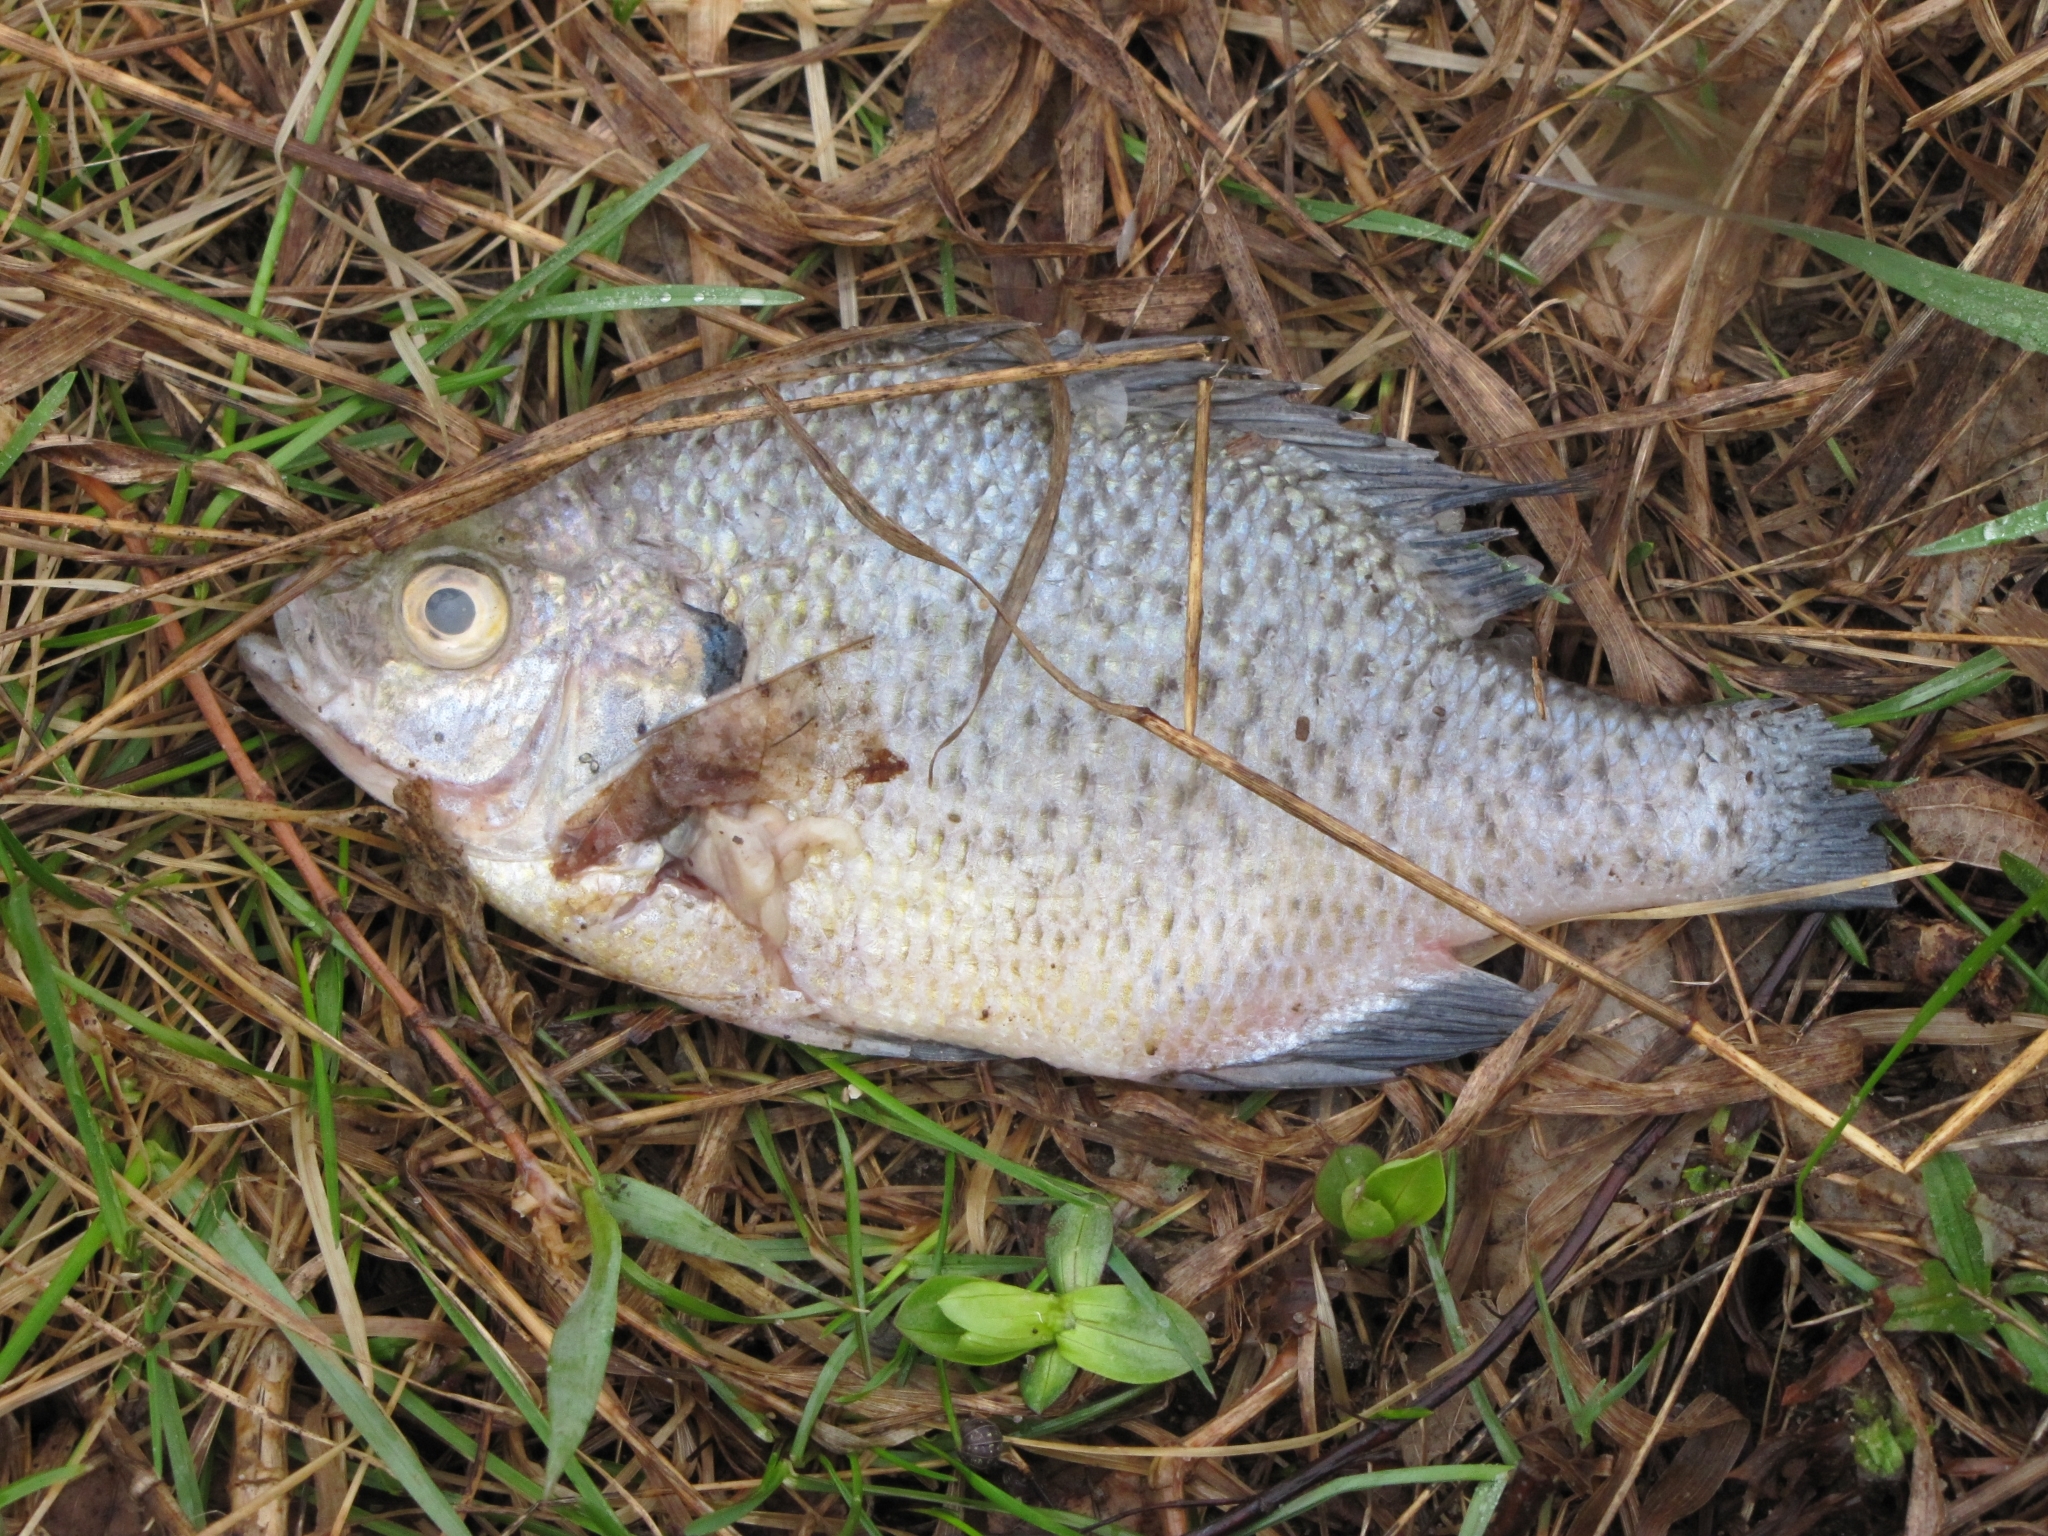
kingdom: Animalia
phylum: Chordata
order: Perciformes
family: Centrarchidae
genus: Lepomis
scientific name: Lepomis macrochirus
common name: Bluegill
